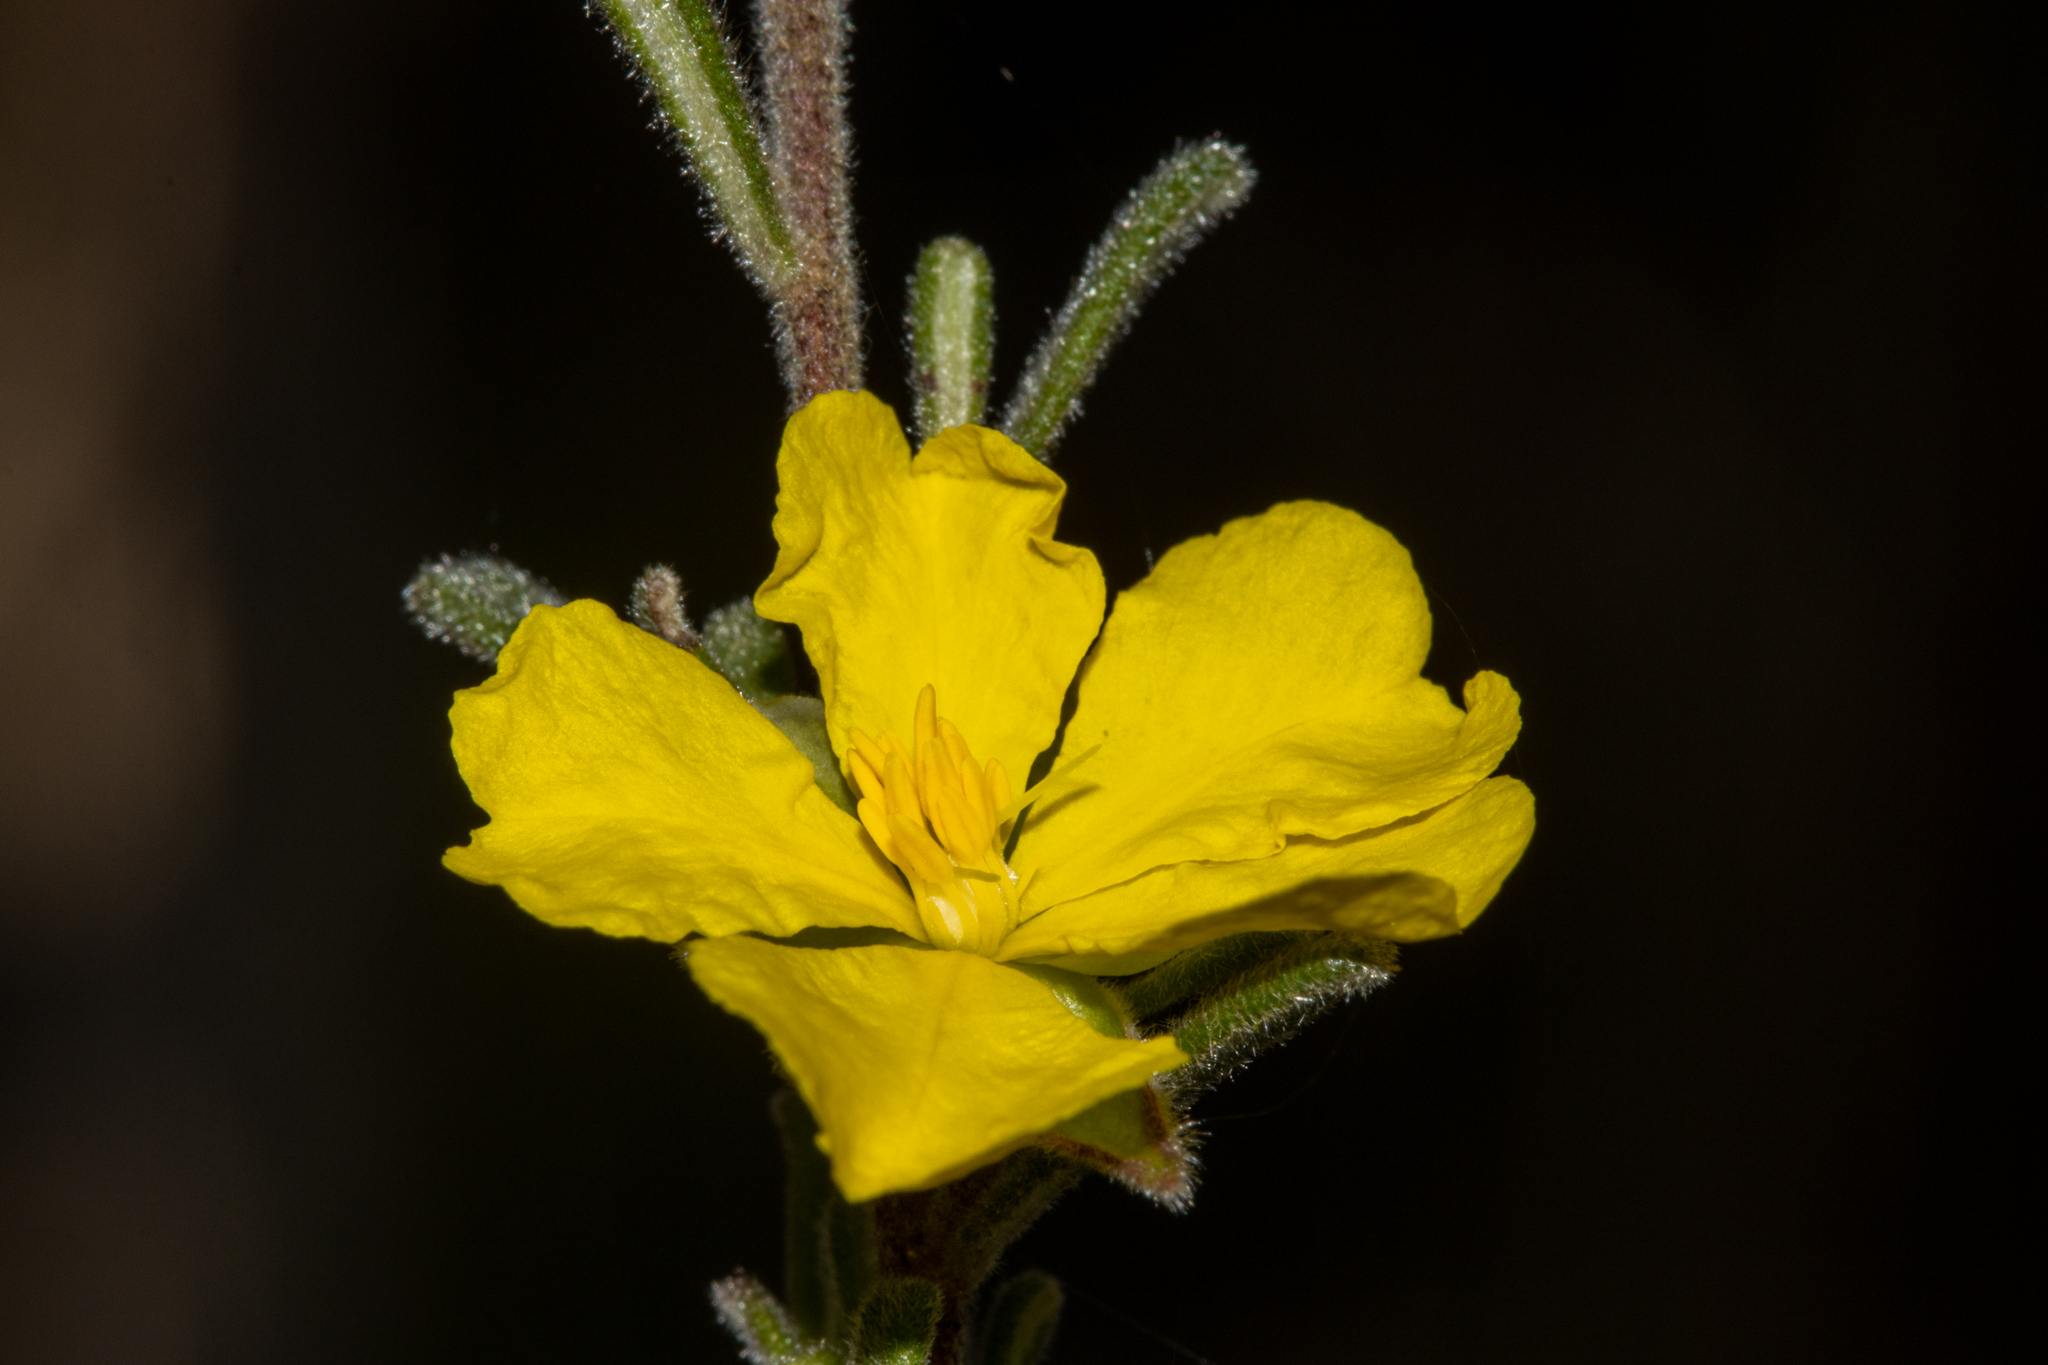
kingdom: Plantae
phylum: Tracheophyta
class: Magnoliopsida
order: Dilleniales
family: Dilleniaceae
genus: Hibbertia
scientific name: Hibbertia planifolia
